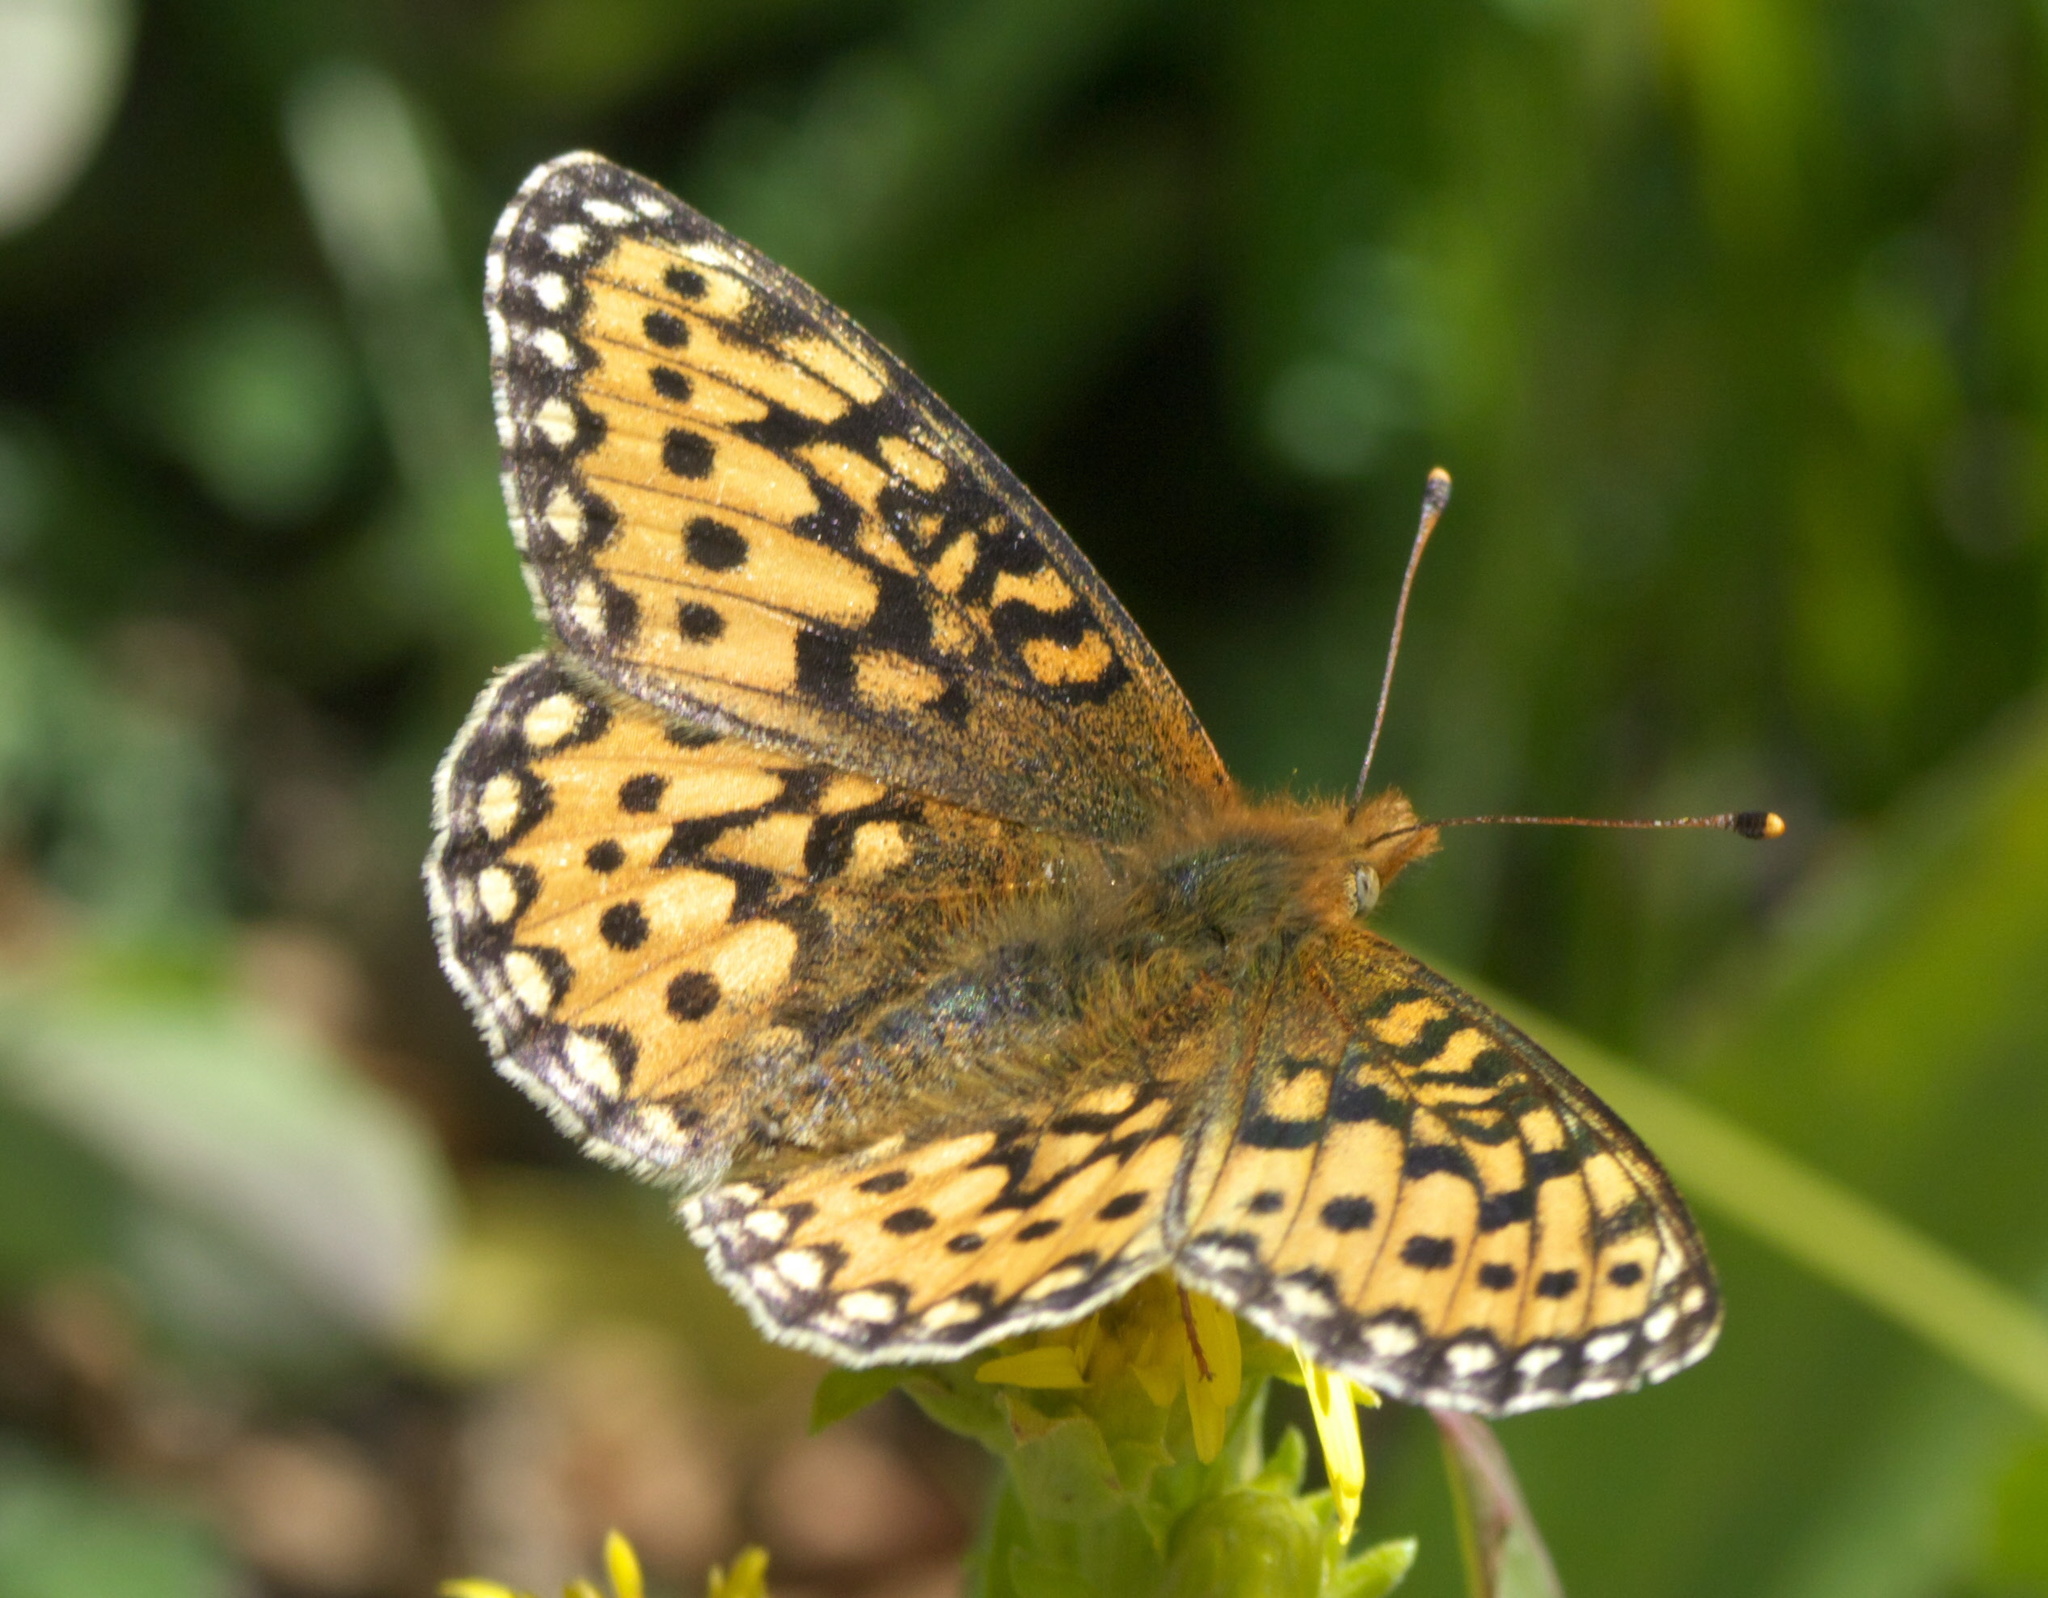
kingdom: Animalia
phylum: Arthropoda
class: Insecta
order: Lepidoptera
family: Nymphalidae
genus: Speyeria
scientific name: Speyeria mormonia
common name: Mormon fritillary
